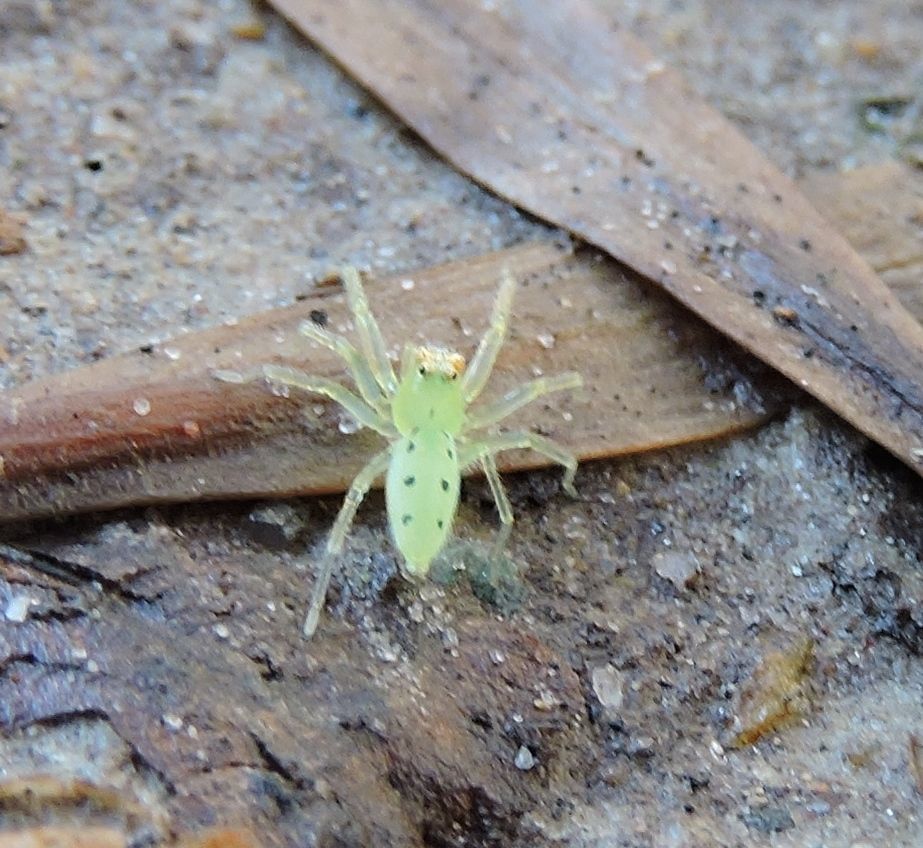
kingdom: Animalia
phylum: Arthropoda
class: Arachnida
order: Araneae
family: Salticidae
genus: Lyssomanes
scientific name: Lyssomanes viridis
